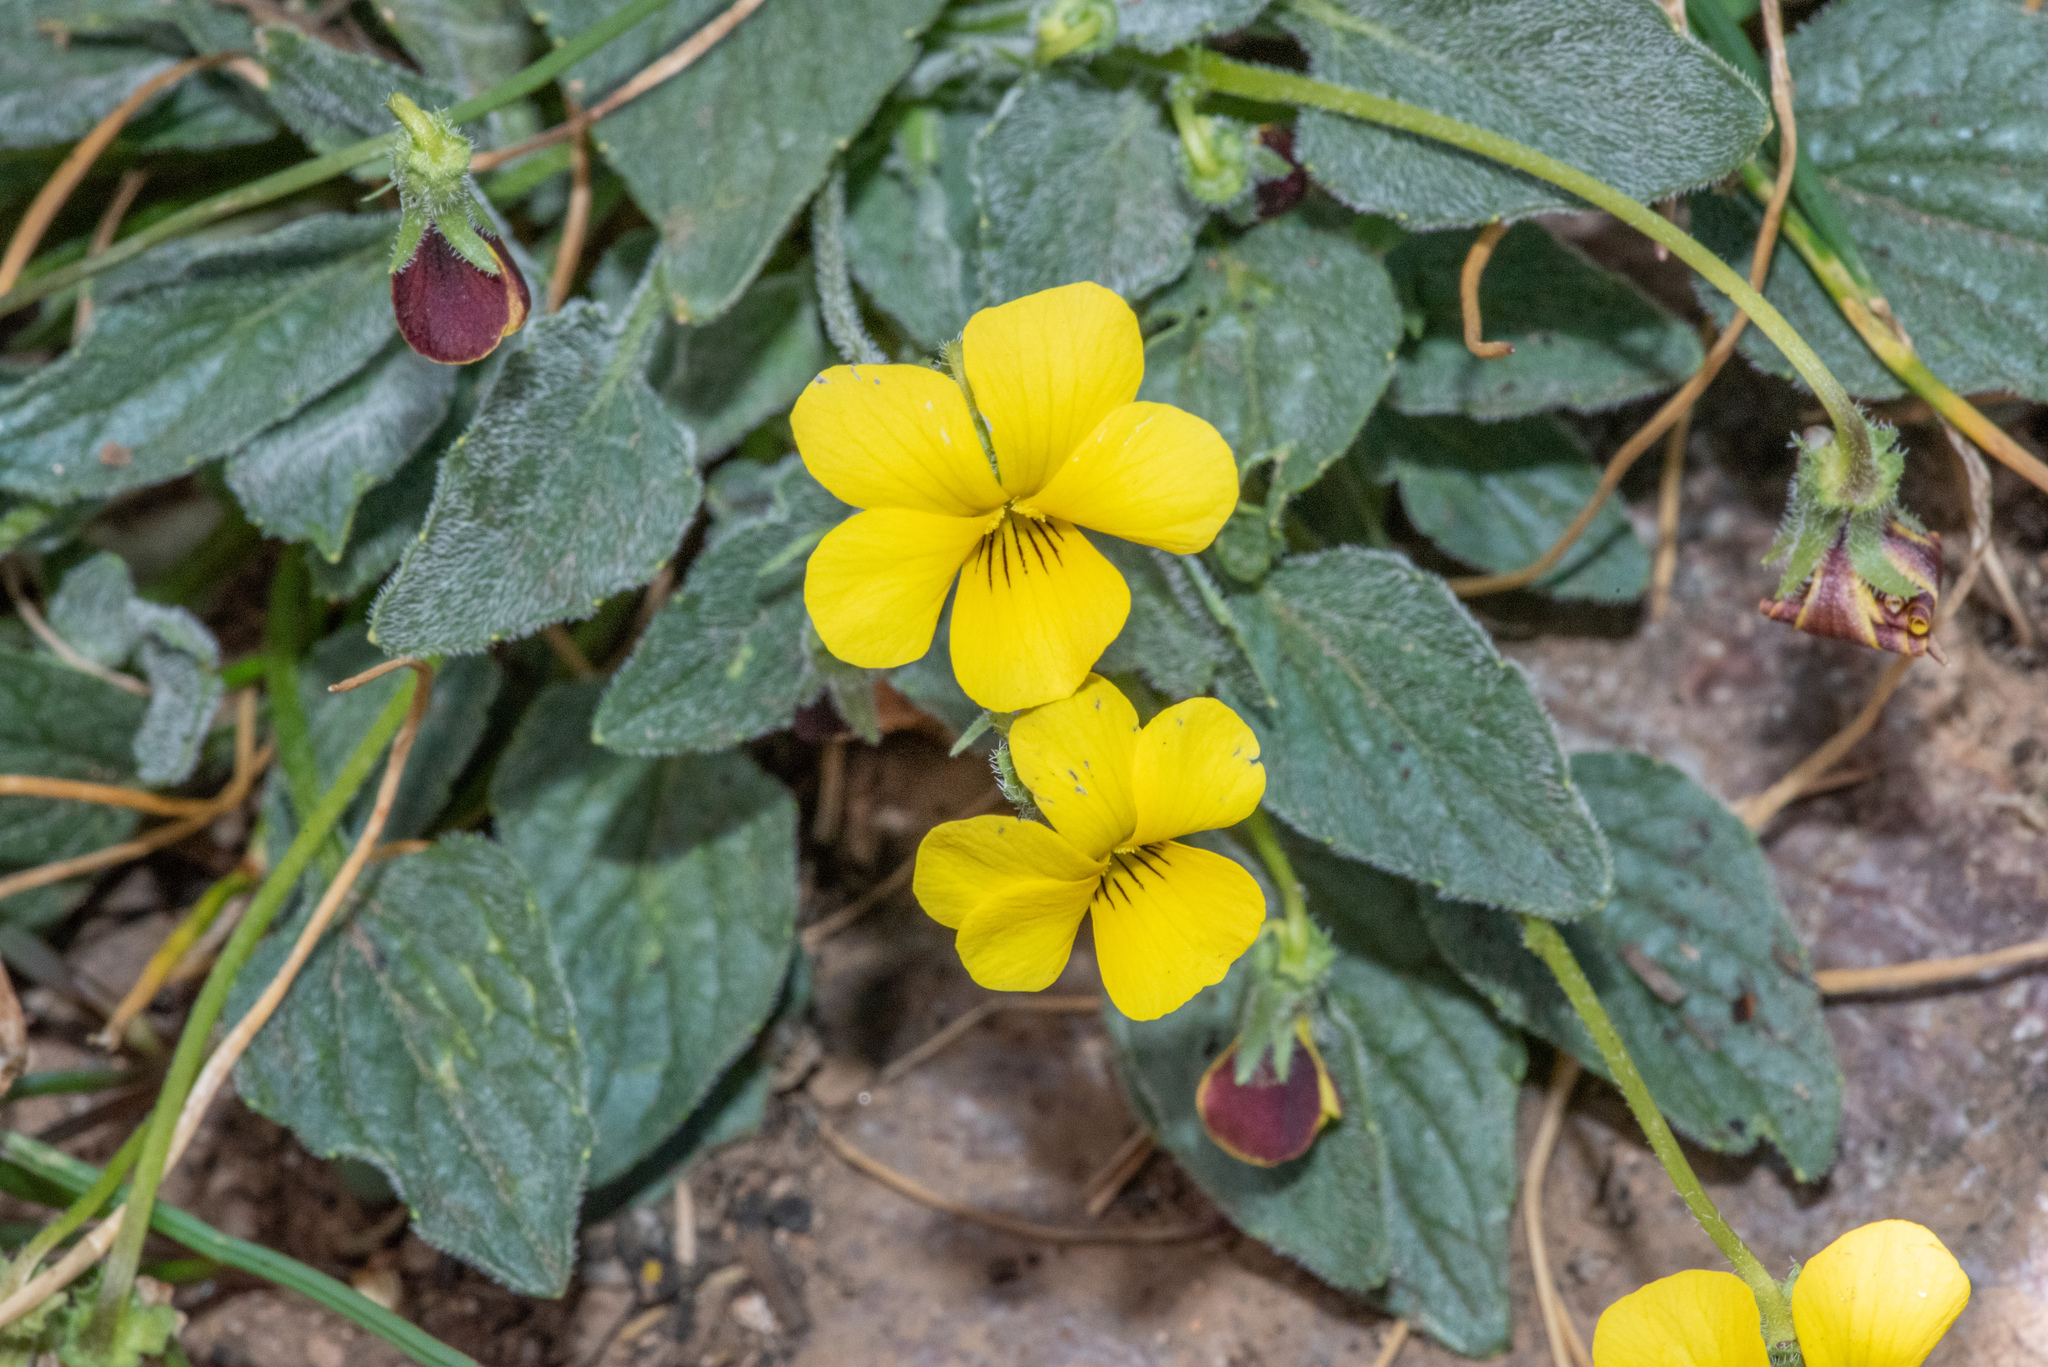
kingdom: Plantae
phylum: Tracheophyta
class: Magnoliopsida
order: Malpighiales
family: Violaceae
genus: Viola
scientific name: Viola purpurea
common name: Pine violet
